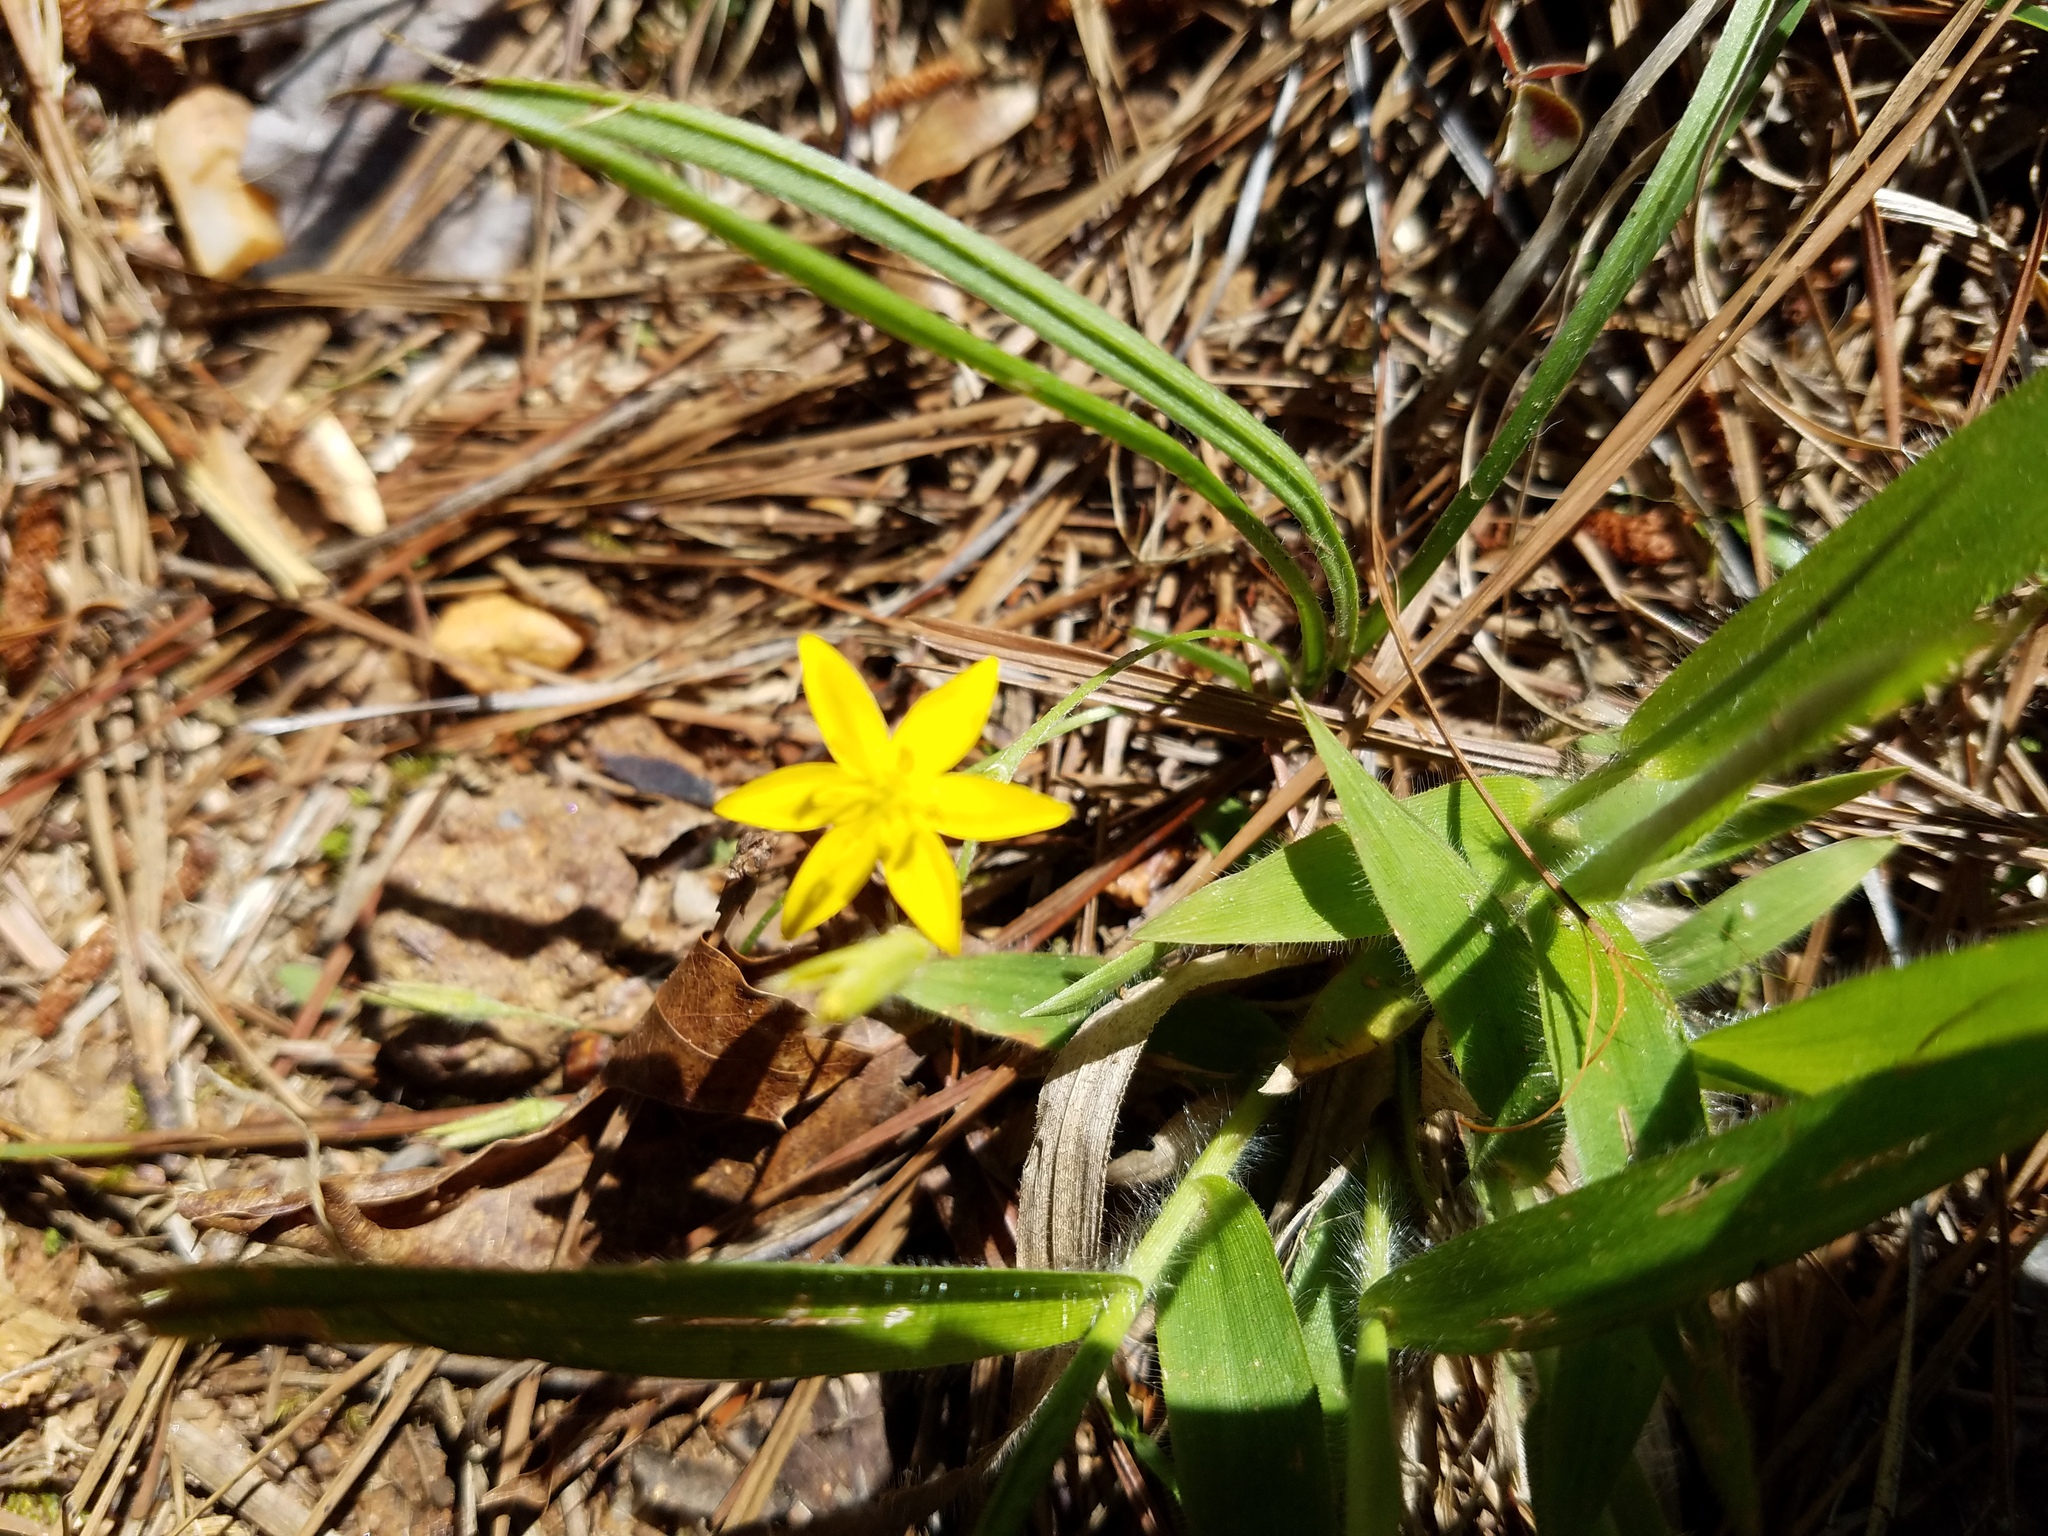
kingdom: Plantae
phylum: Tracheophyta
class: Liliopsida
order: Asparagales
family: Hypoxidaceae
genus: Hypoxis
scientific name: Hypoxis hirsuta
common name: Common goldstar
